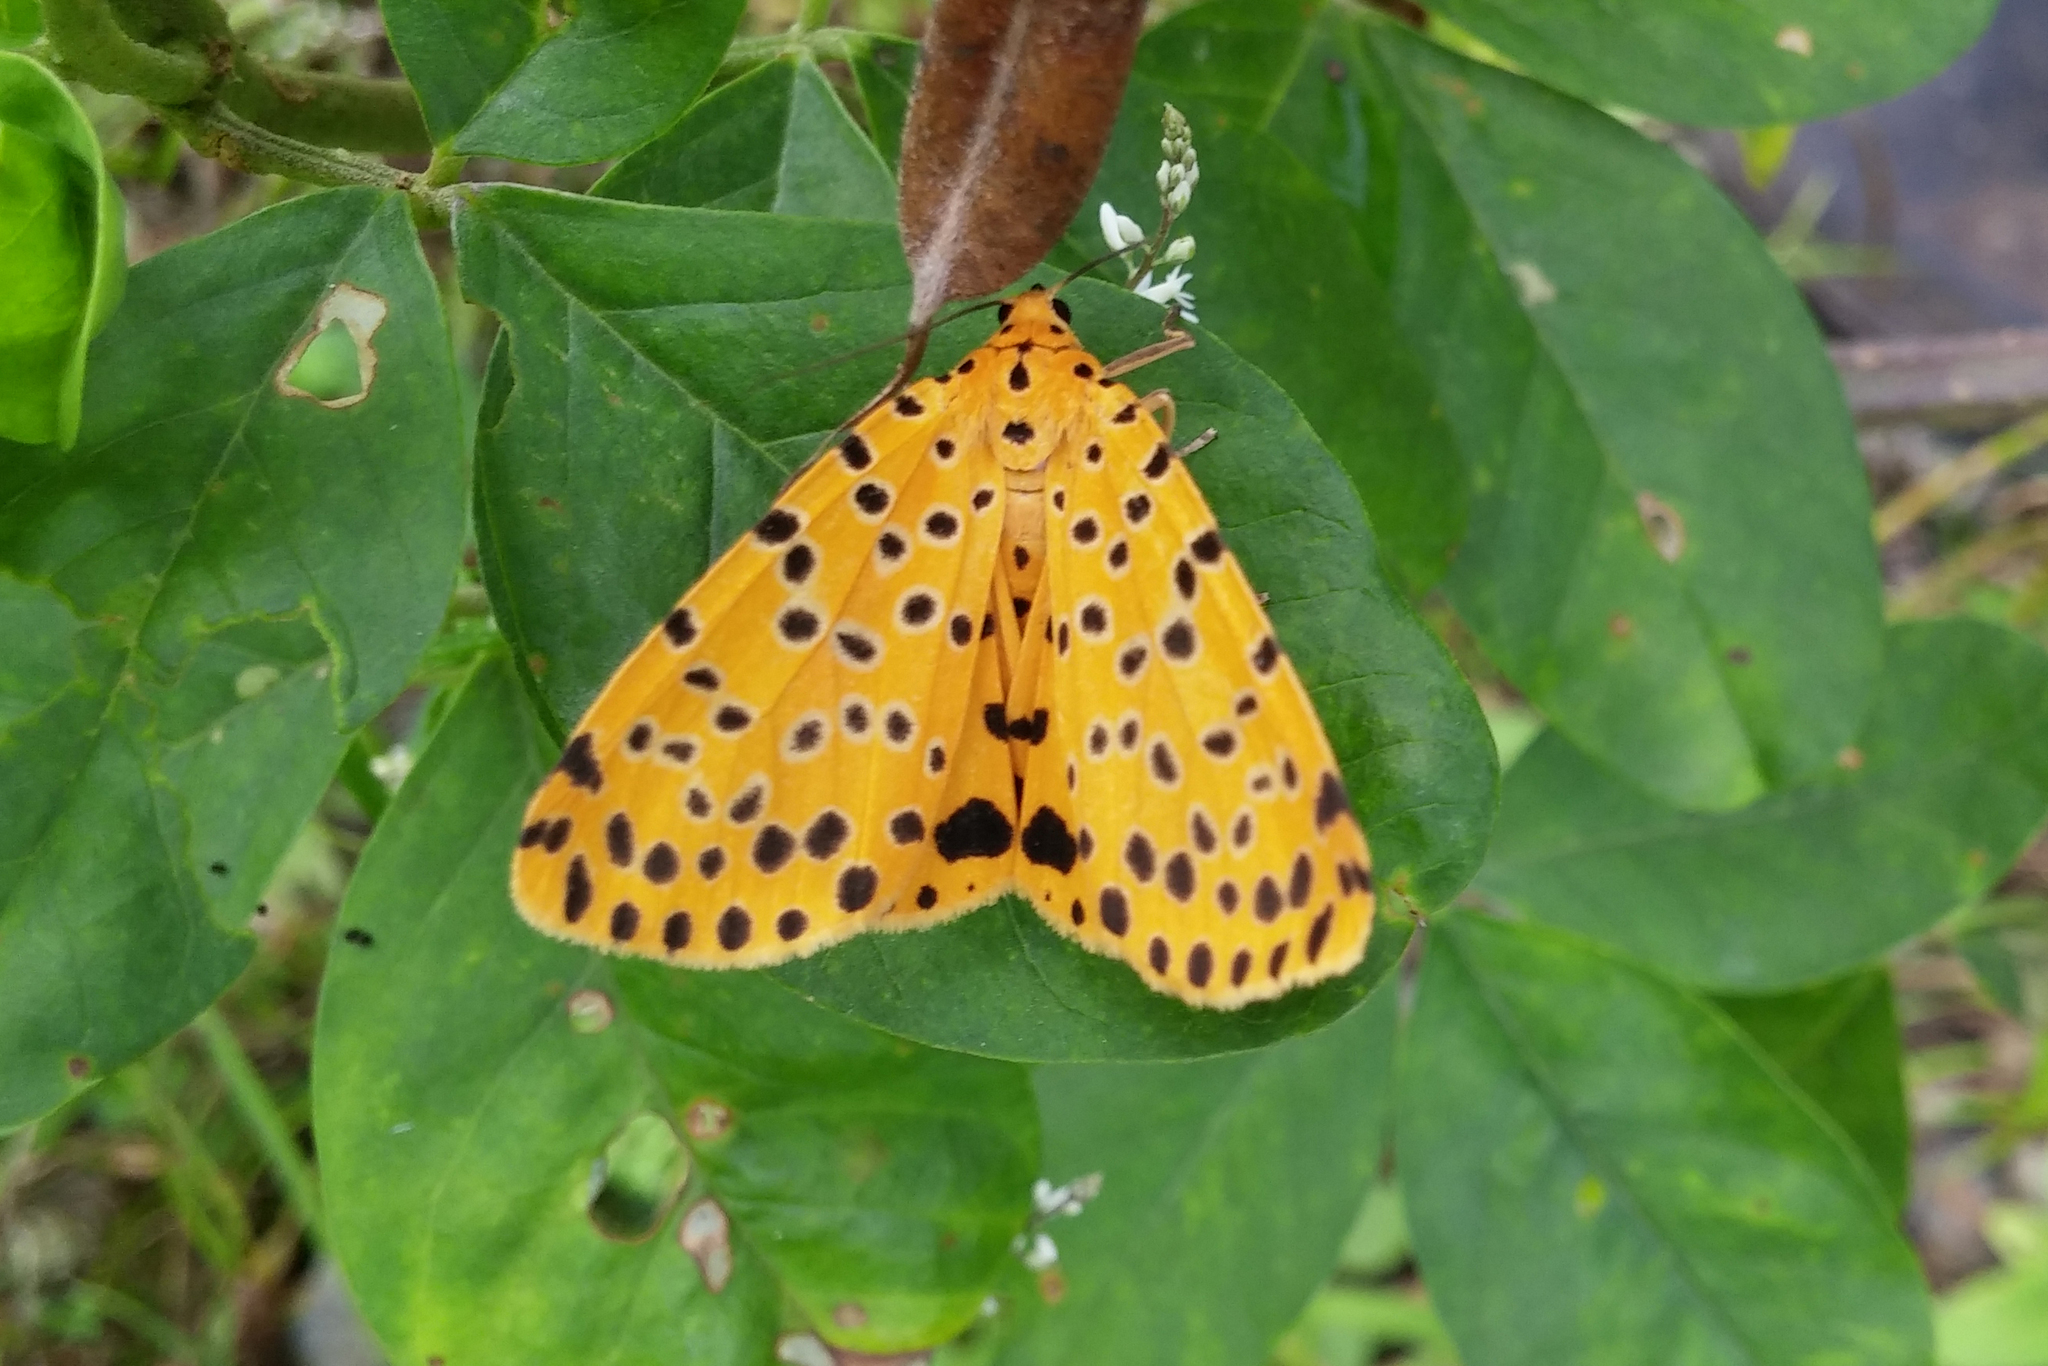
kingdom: Animalia
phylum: Arthropoda
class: Insecta
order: Lepidoptera
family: Erebidae
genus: Argina
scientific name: Argina astrea
